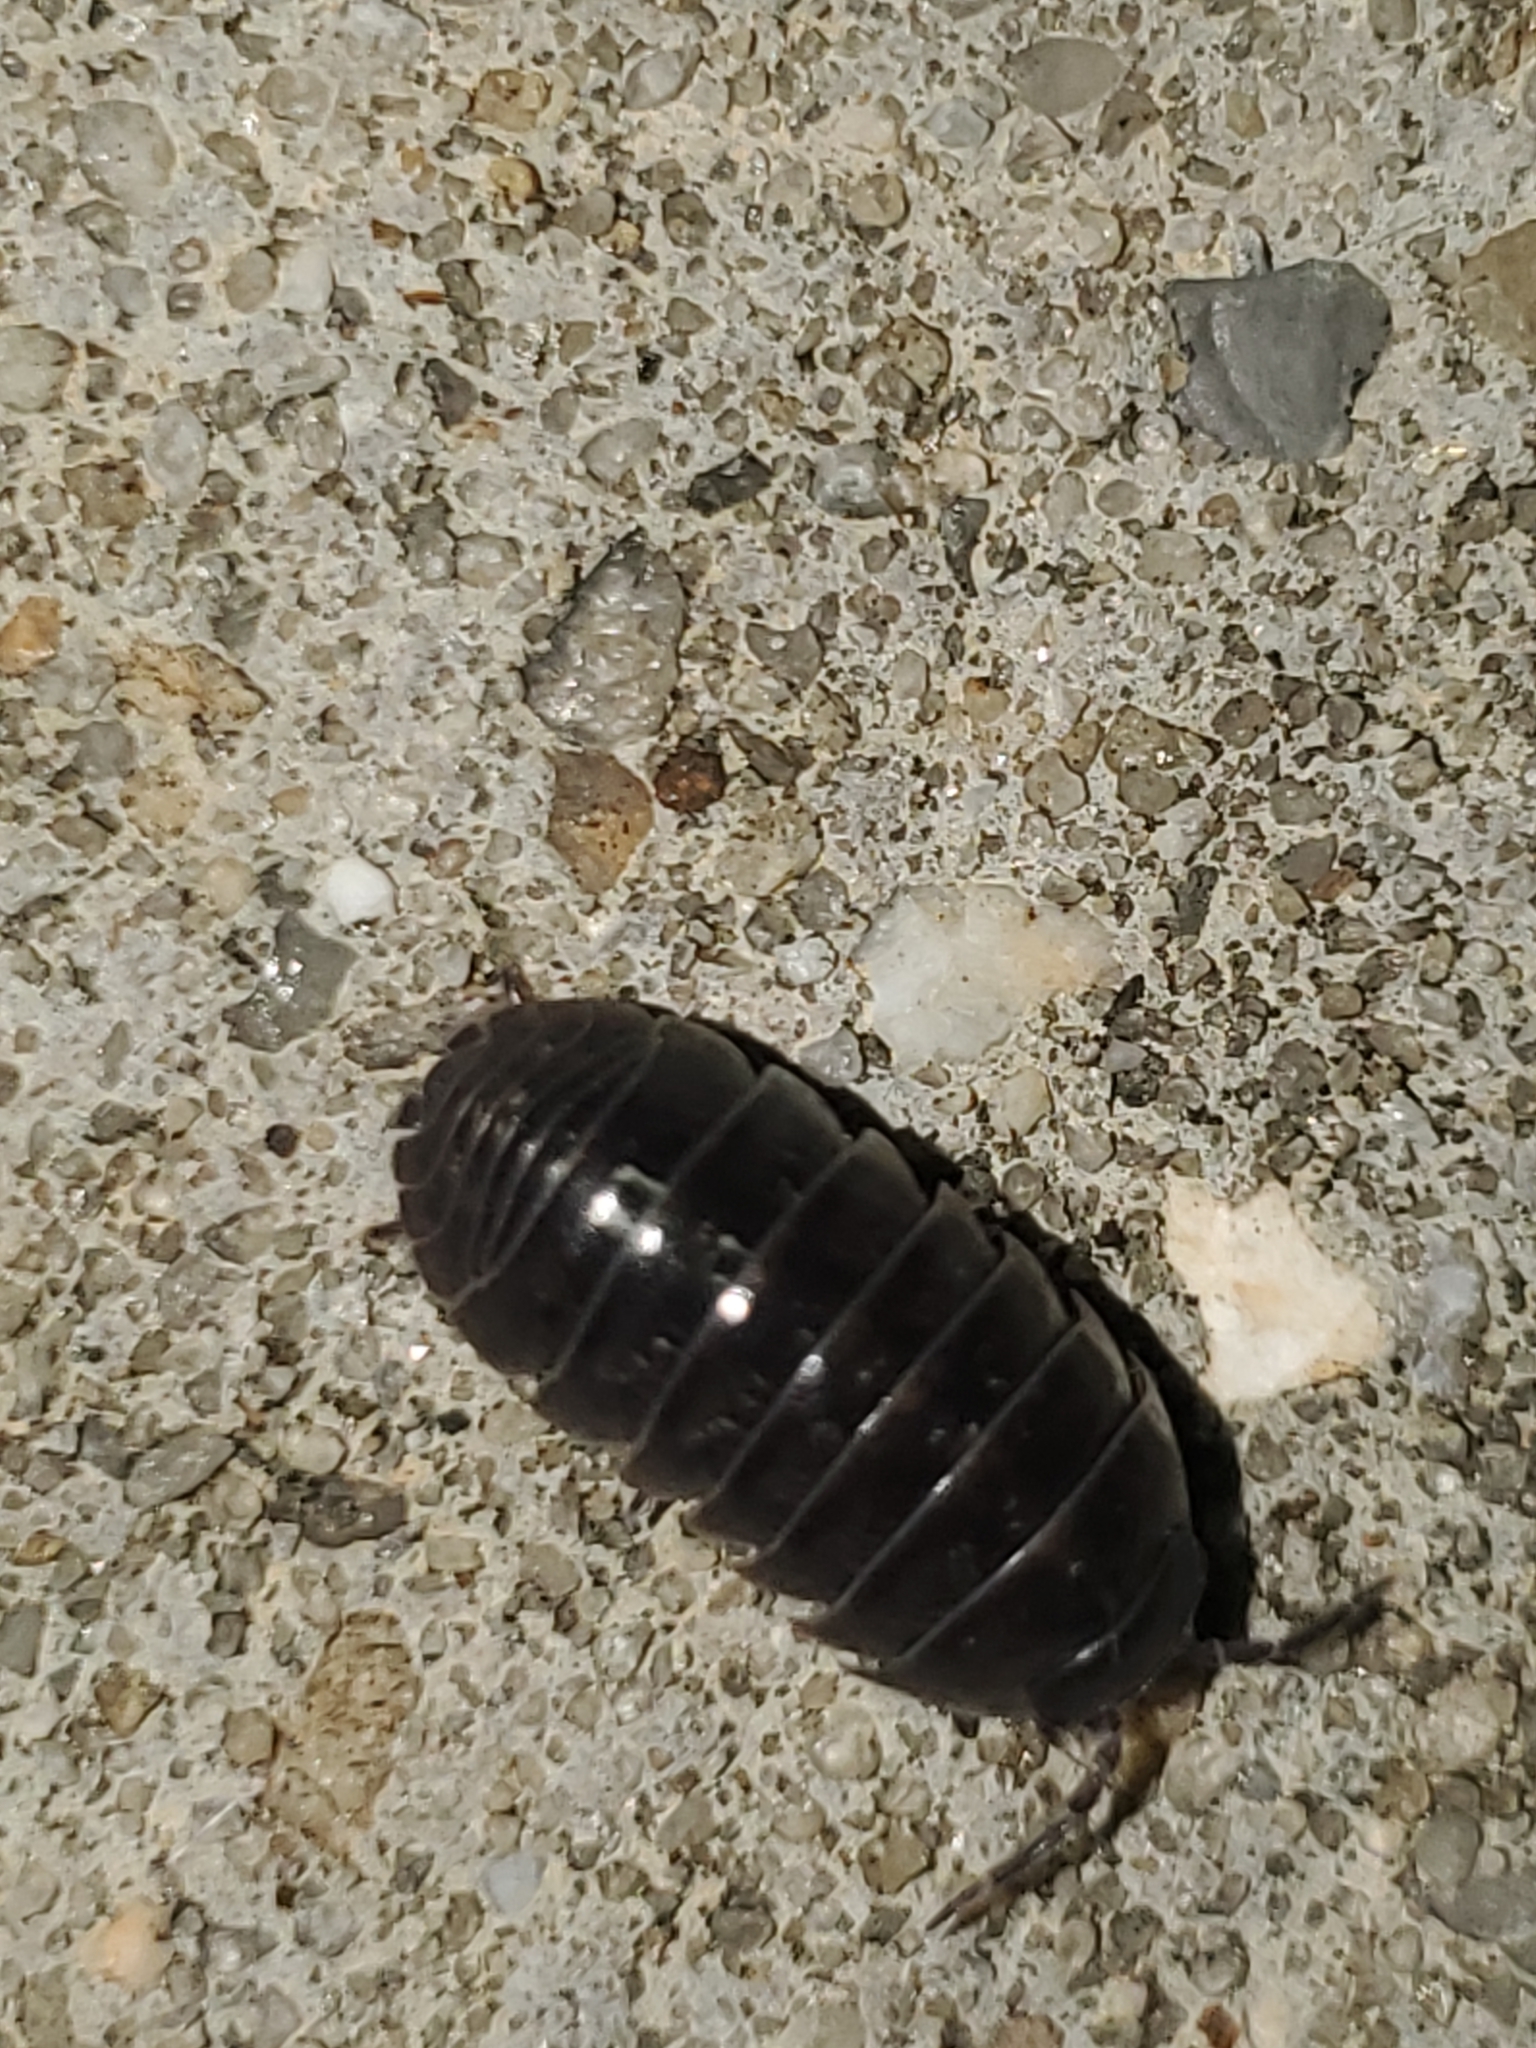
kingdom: Animalia
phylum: Arthropoda
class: Malacostraca
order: Isopoda
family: Armadillidiidae
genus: Armadillidium
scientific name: Armadillidium vulgare
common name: Common pill woodlouse
